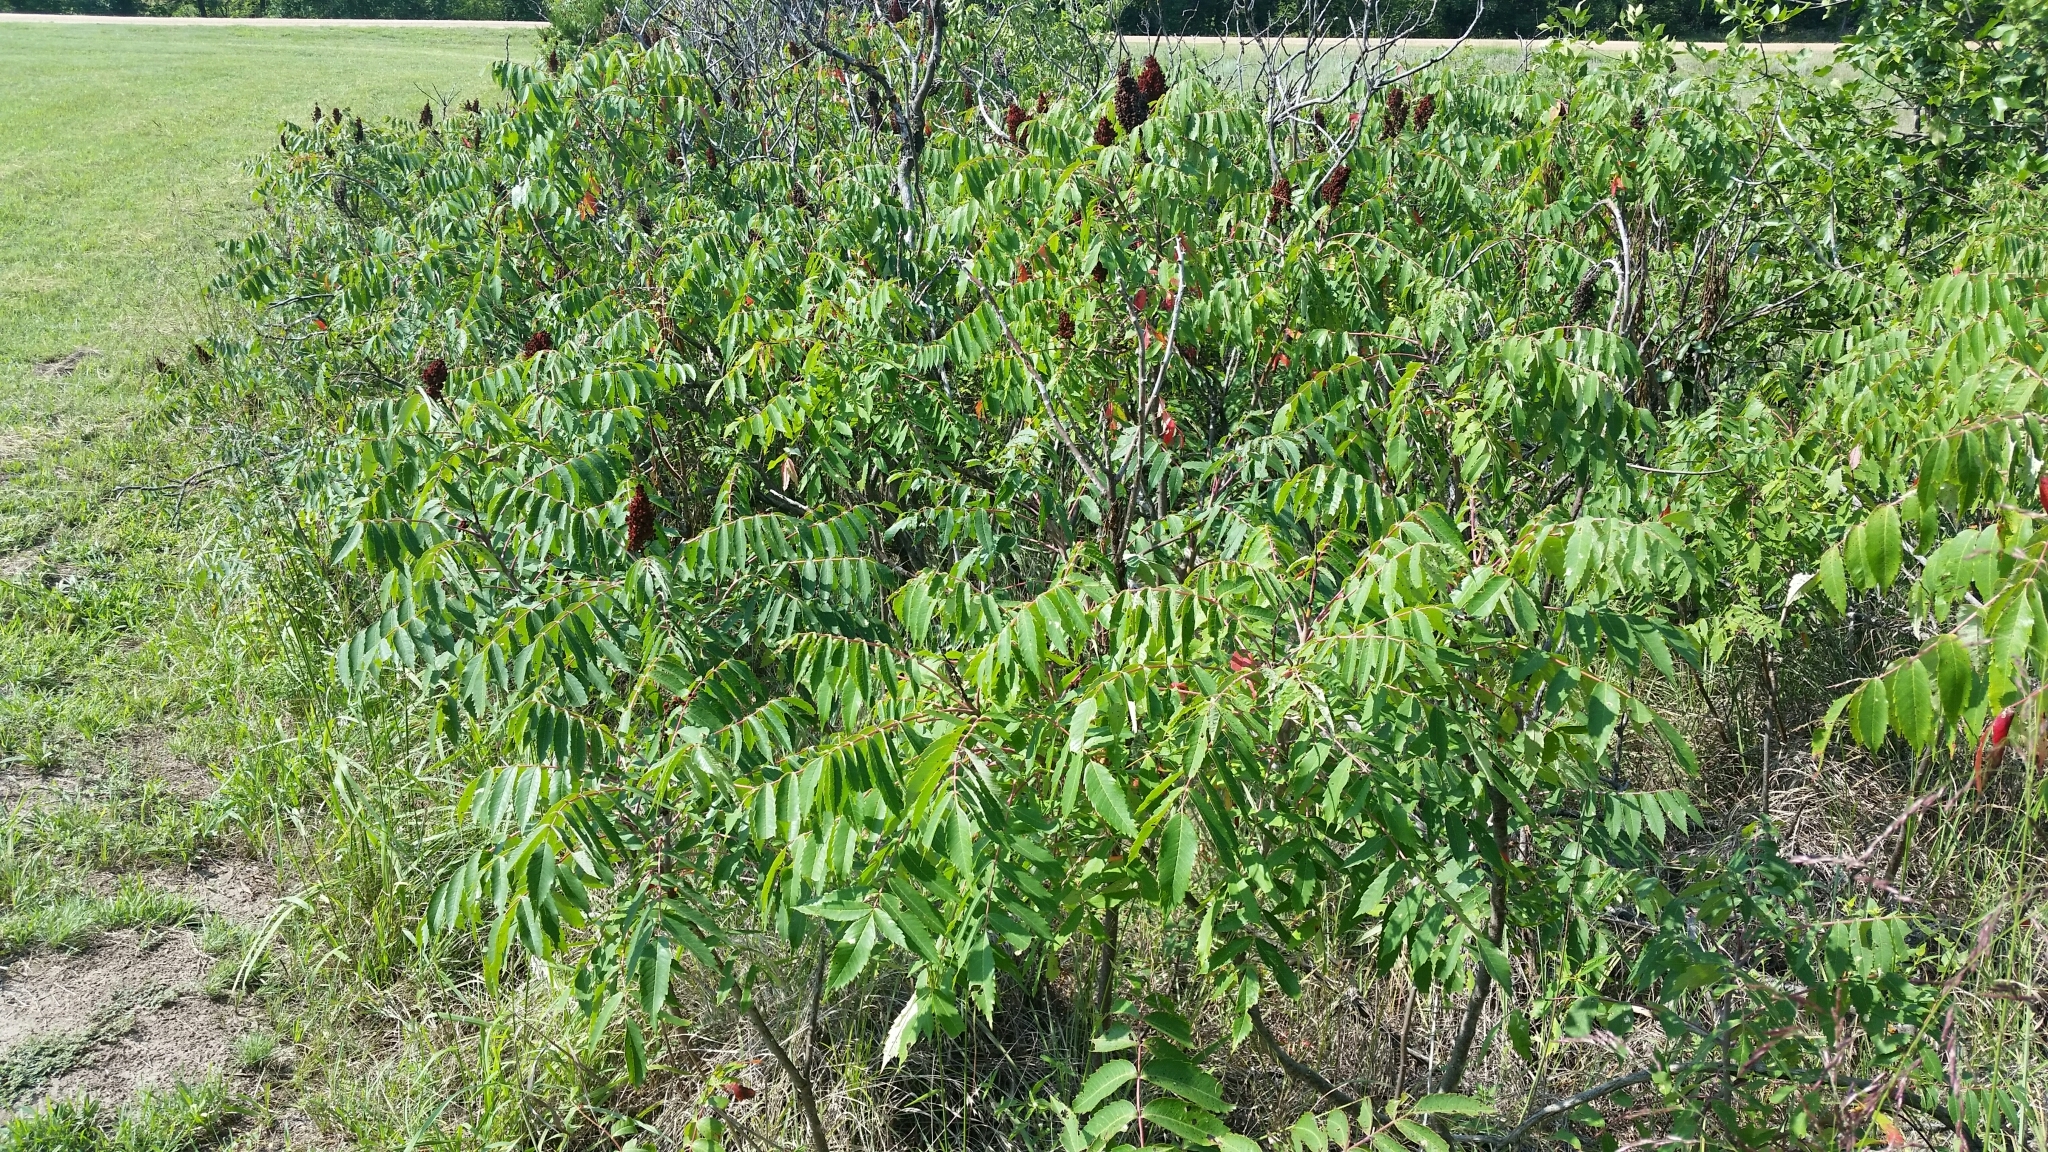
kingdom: Plantae
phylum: Tracheophyta
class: Magnoliopsida
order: Sapindales
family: Anacardiaceae
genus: Rhus
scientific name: Rhus glabra
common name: Scarlet sumac
